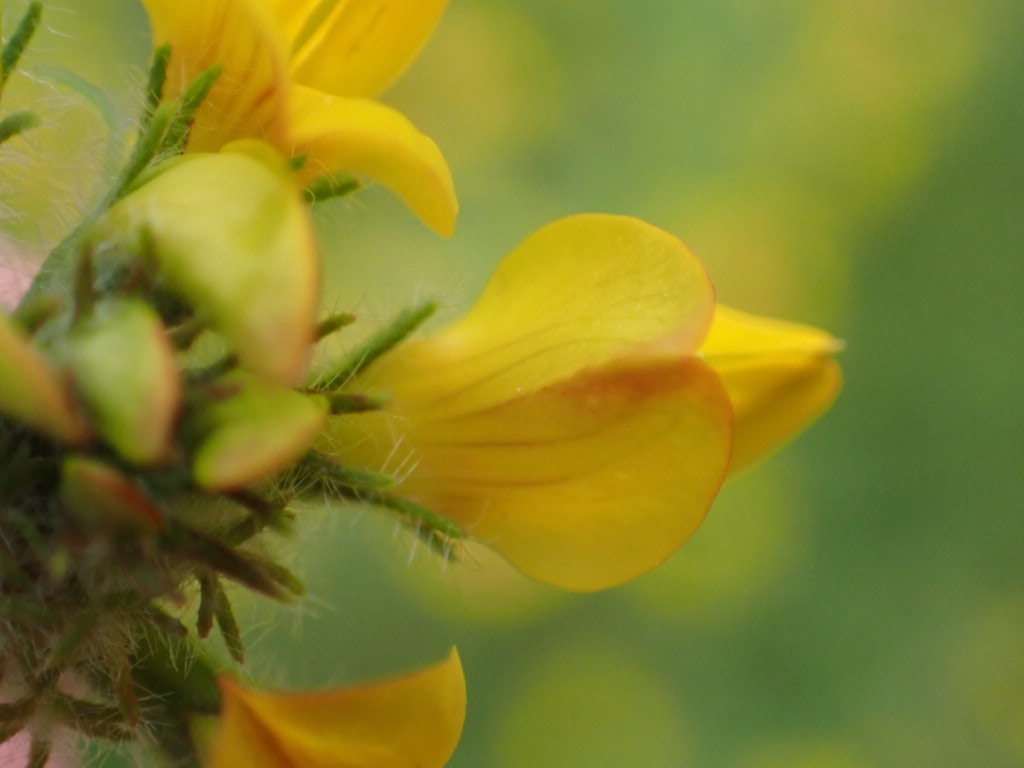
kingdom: Plantae
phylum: Tracheophyta
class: Magnoliopsida
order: Fabales
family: Fabaceae
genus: Lotus
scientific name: Lotus pedunculatus
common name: Greater birdsfoot-trefoil
